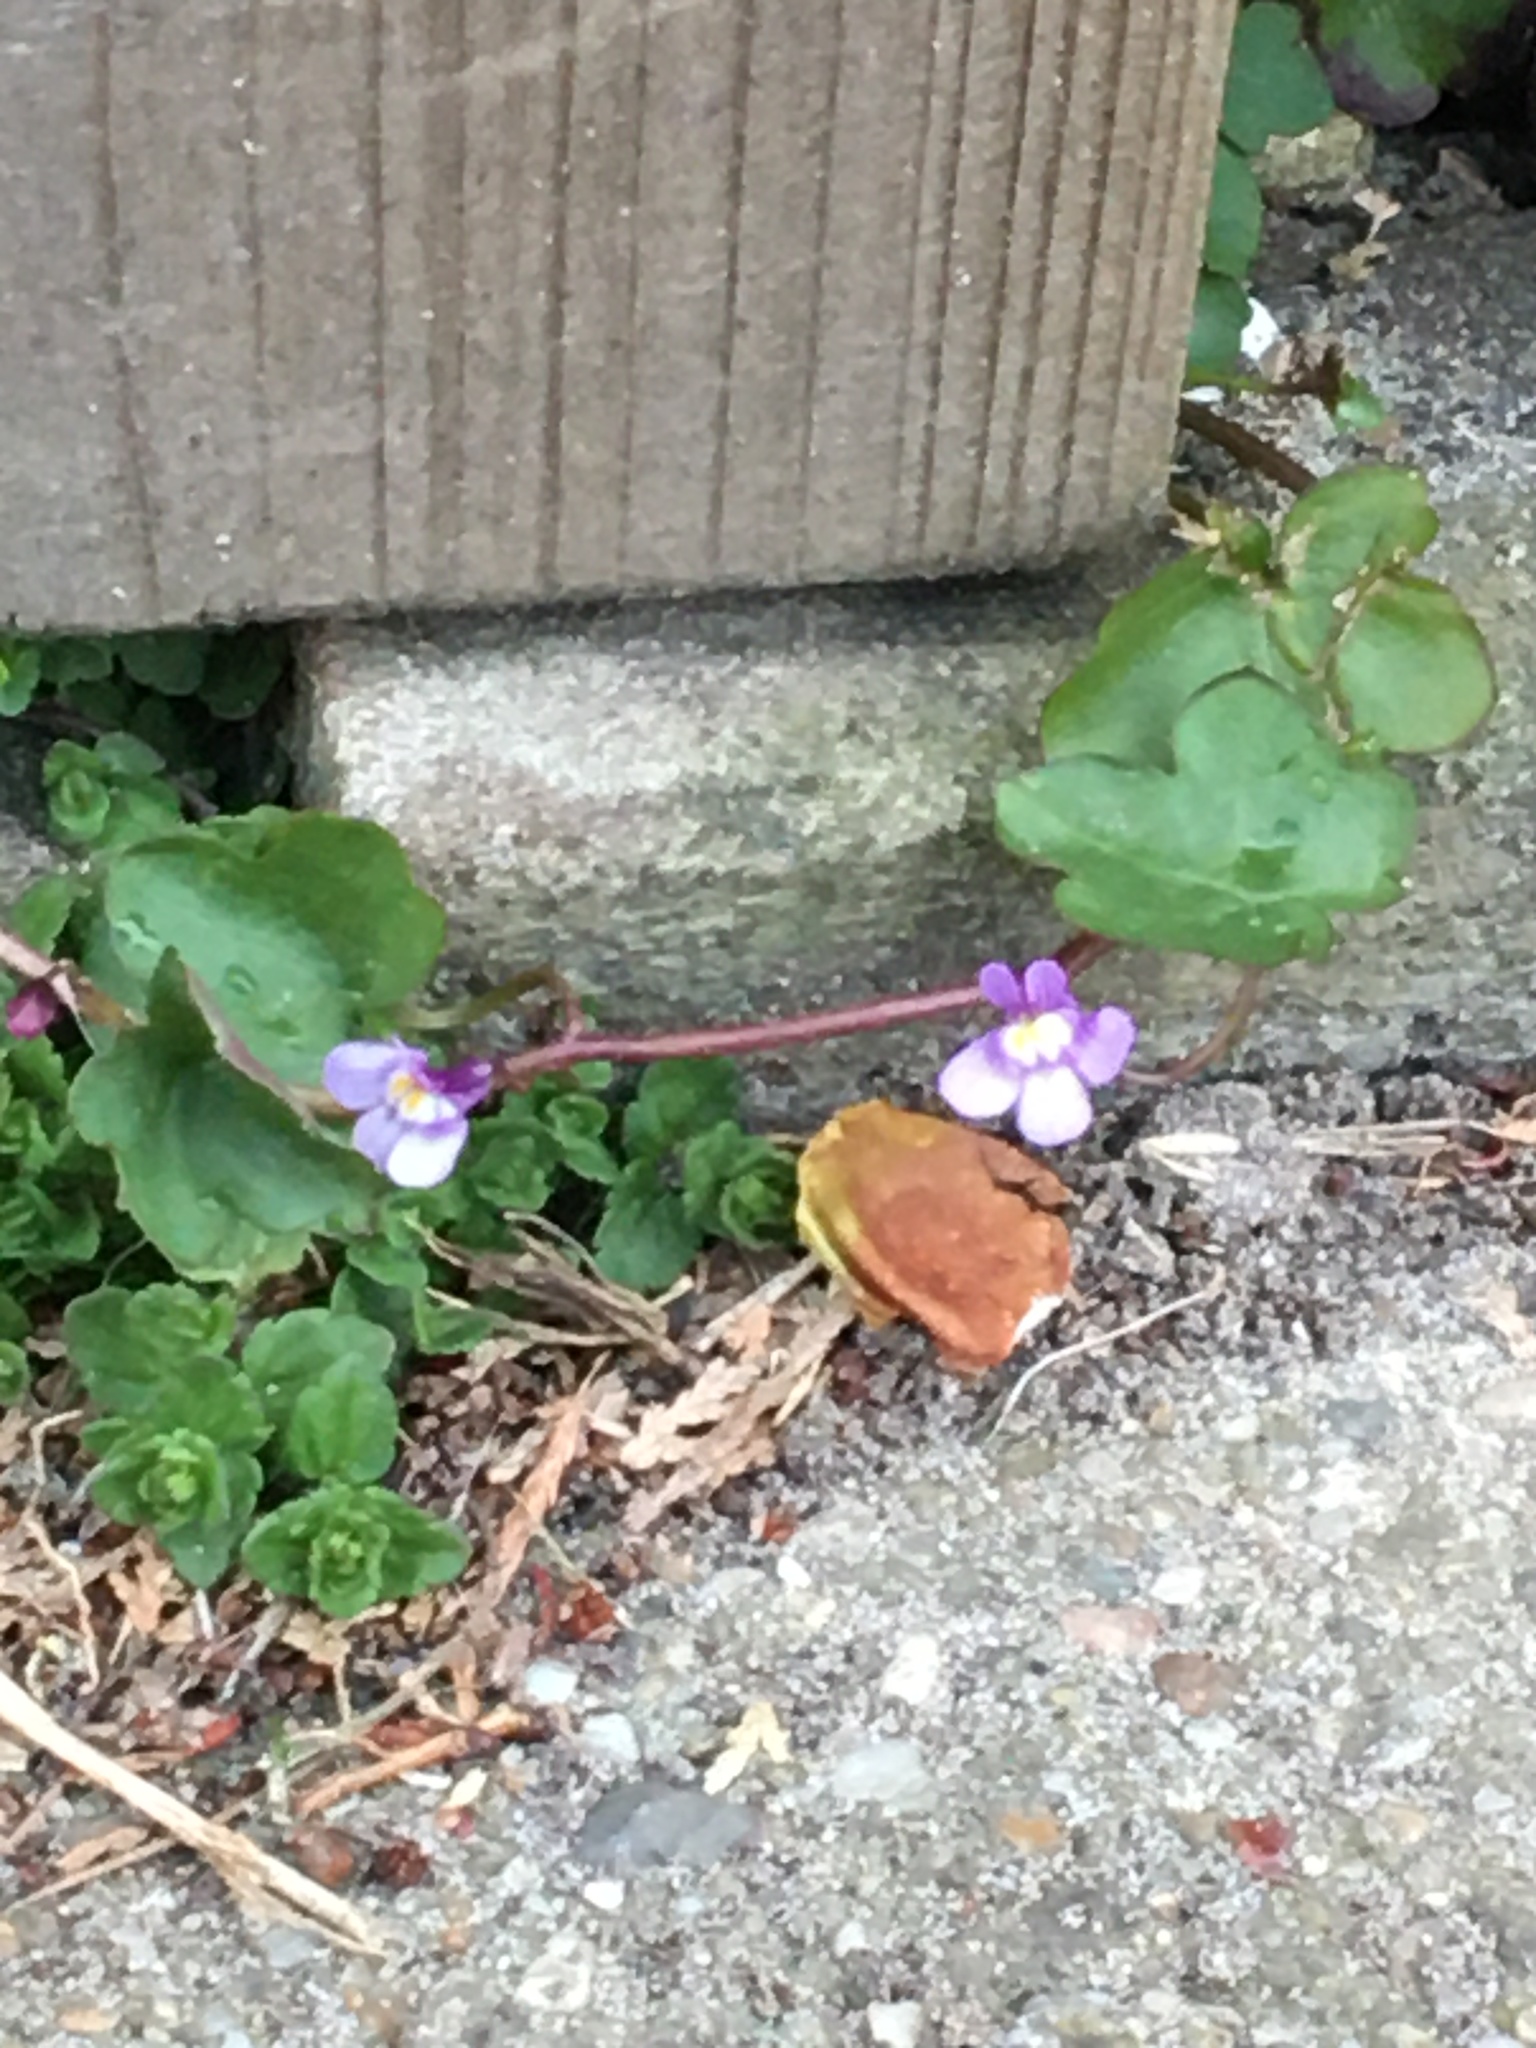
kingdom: Plantae
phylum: Tracheophyta
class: Magnoliopsida
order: Lamiales
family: Plantaginaceae
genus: Cymbalaria
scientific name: Cymbalaria muralis
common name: Ivy-leaved toadflax
